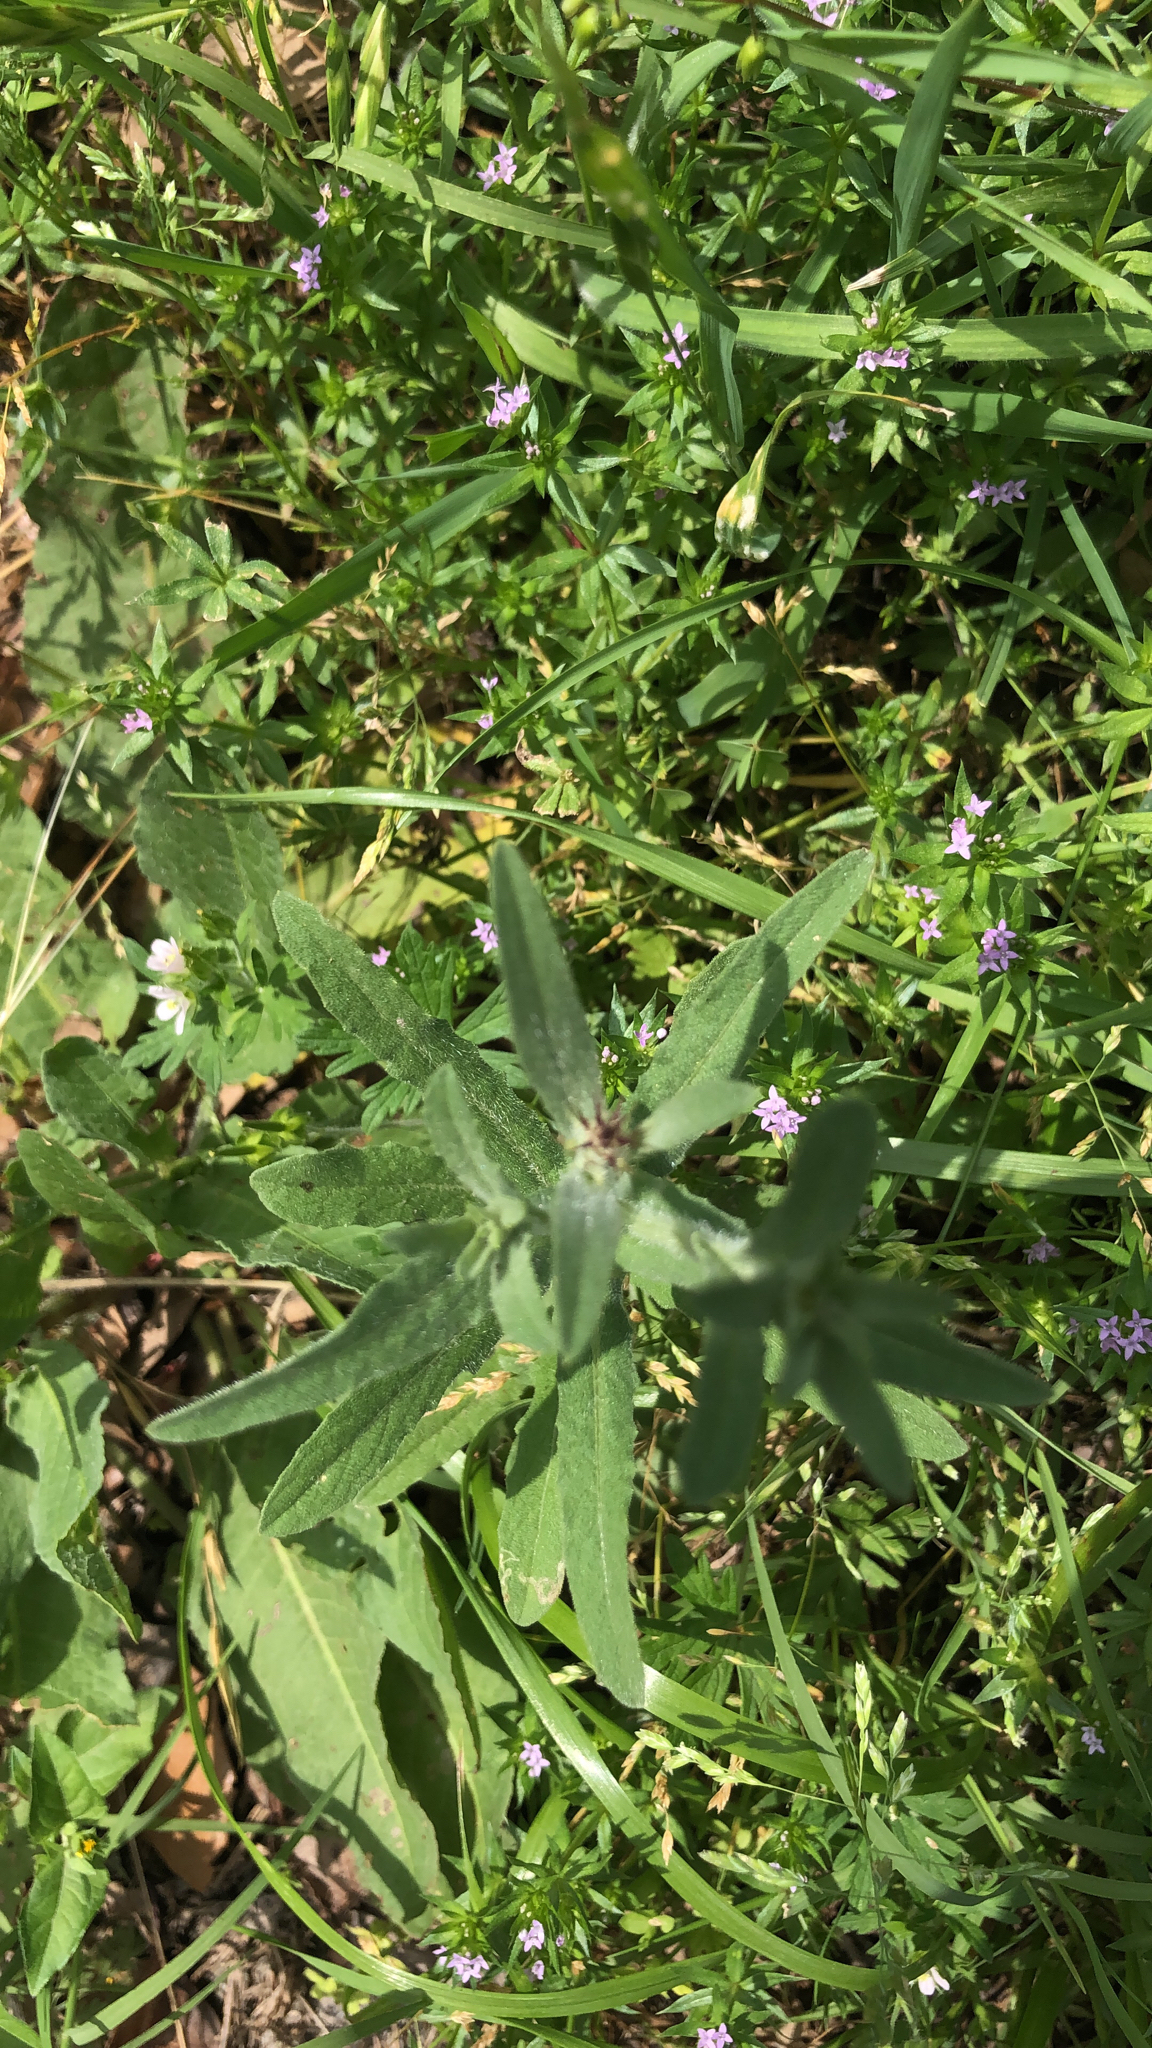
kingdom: Plantae
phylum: Tracheophyta
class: Magnoliopsida
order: Asterales
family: Asteraceae
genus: Centaurea
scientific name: Centaurea melitensis
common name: Maltese star-thistle
